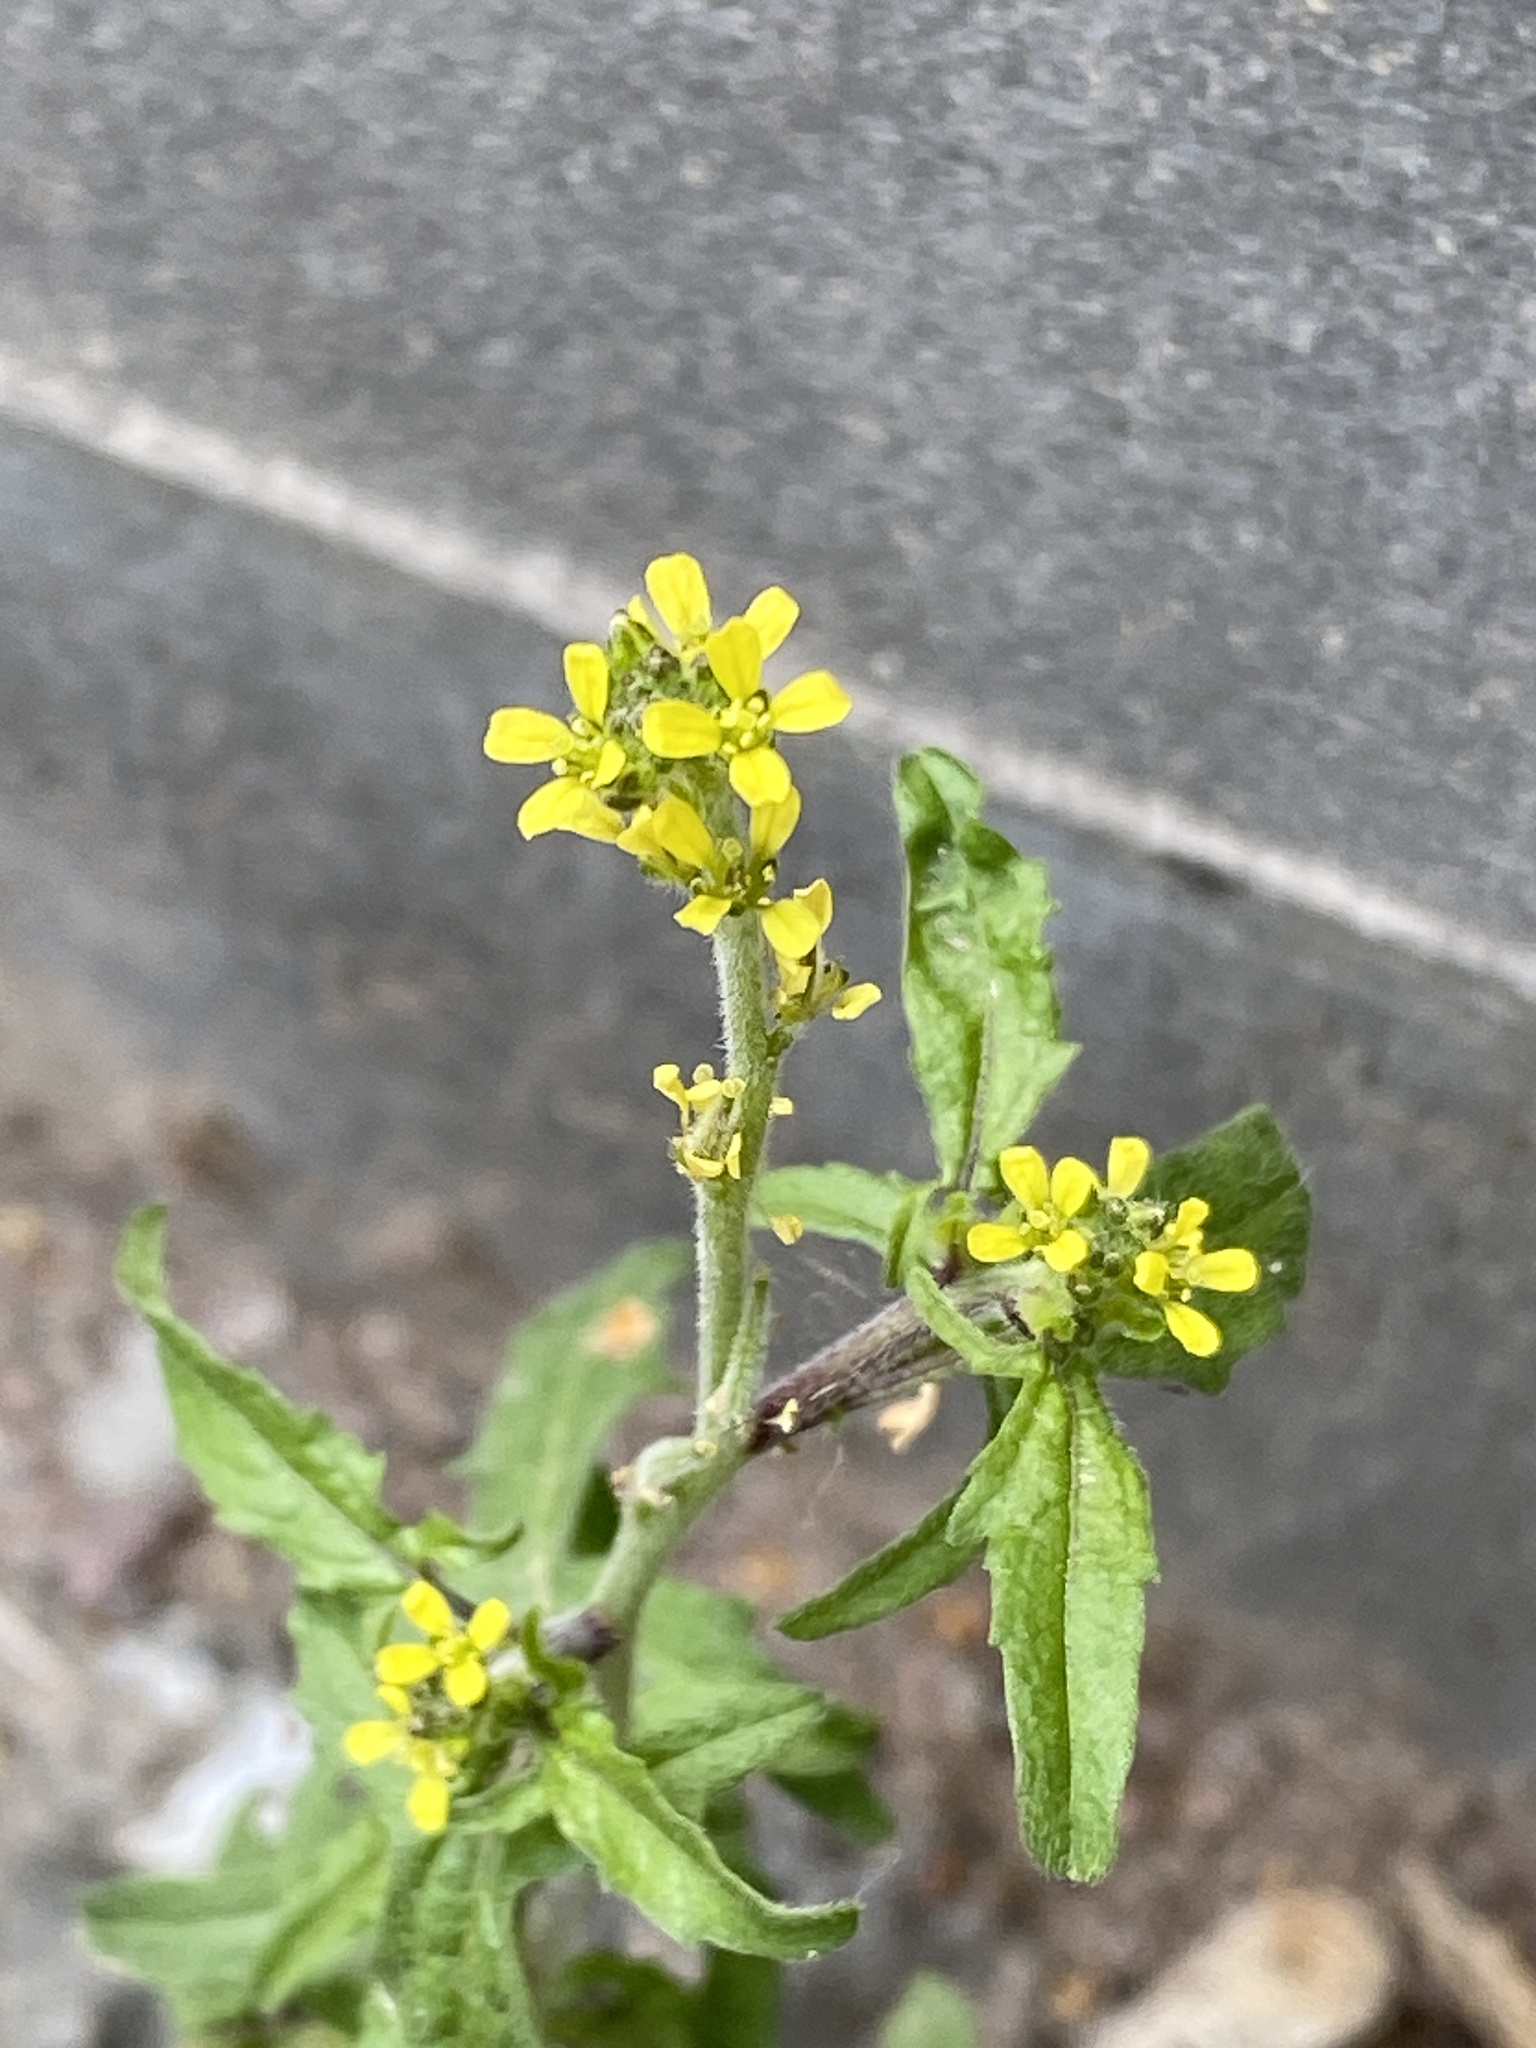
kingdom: Plantae
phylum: Tracheophyta
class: Magnoliopsida
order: Brassicales
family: Brassicaceae
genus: Sisymbrium
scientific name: Sisymbrium officinale
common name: Hedge mustard
